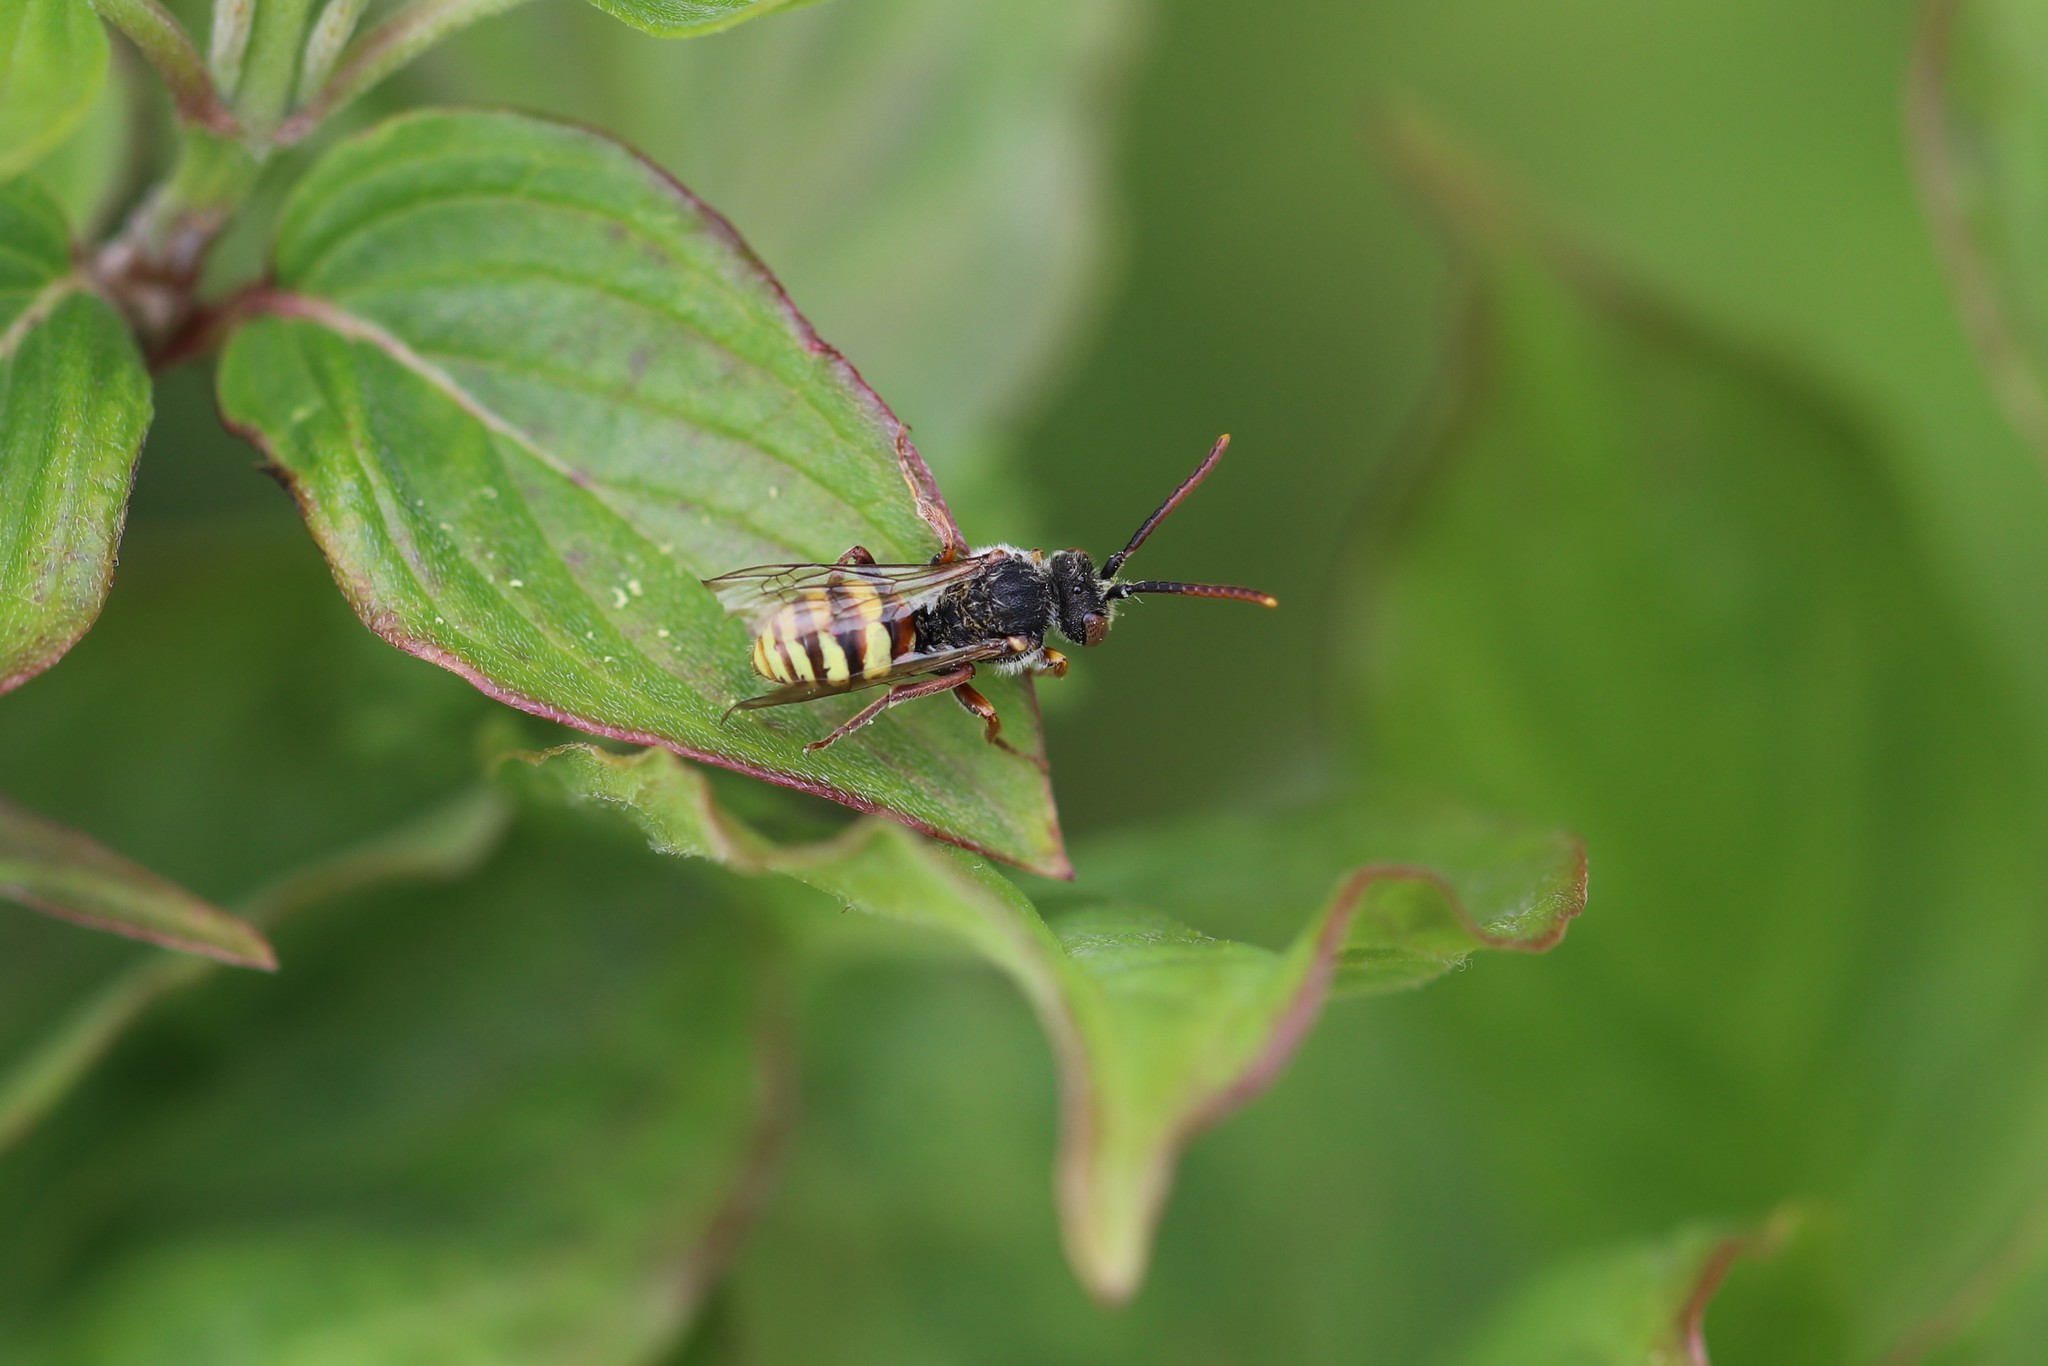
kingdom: Animalia
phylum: Arthropoda
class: Insecta
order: Hymenoptera
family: Apidae
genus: Nomada
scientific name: Nomada
